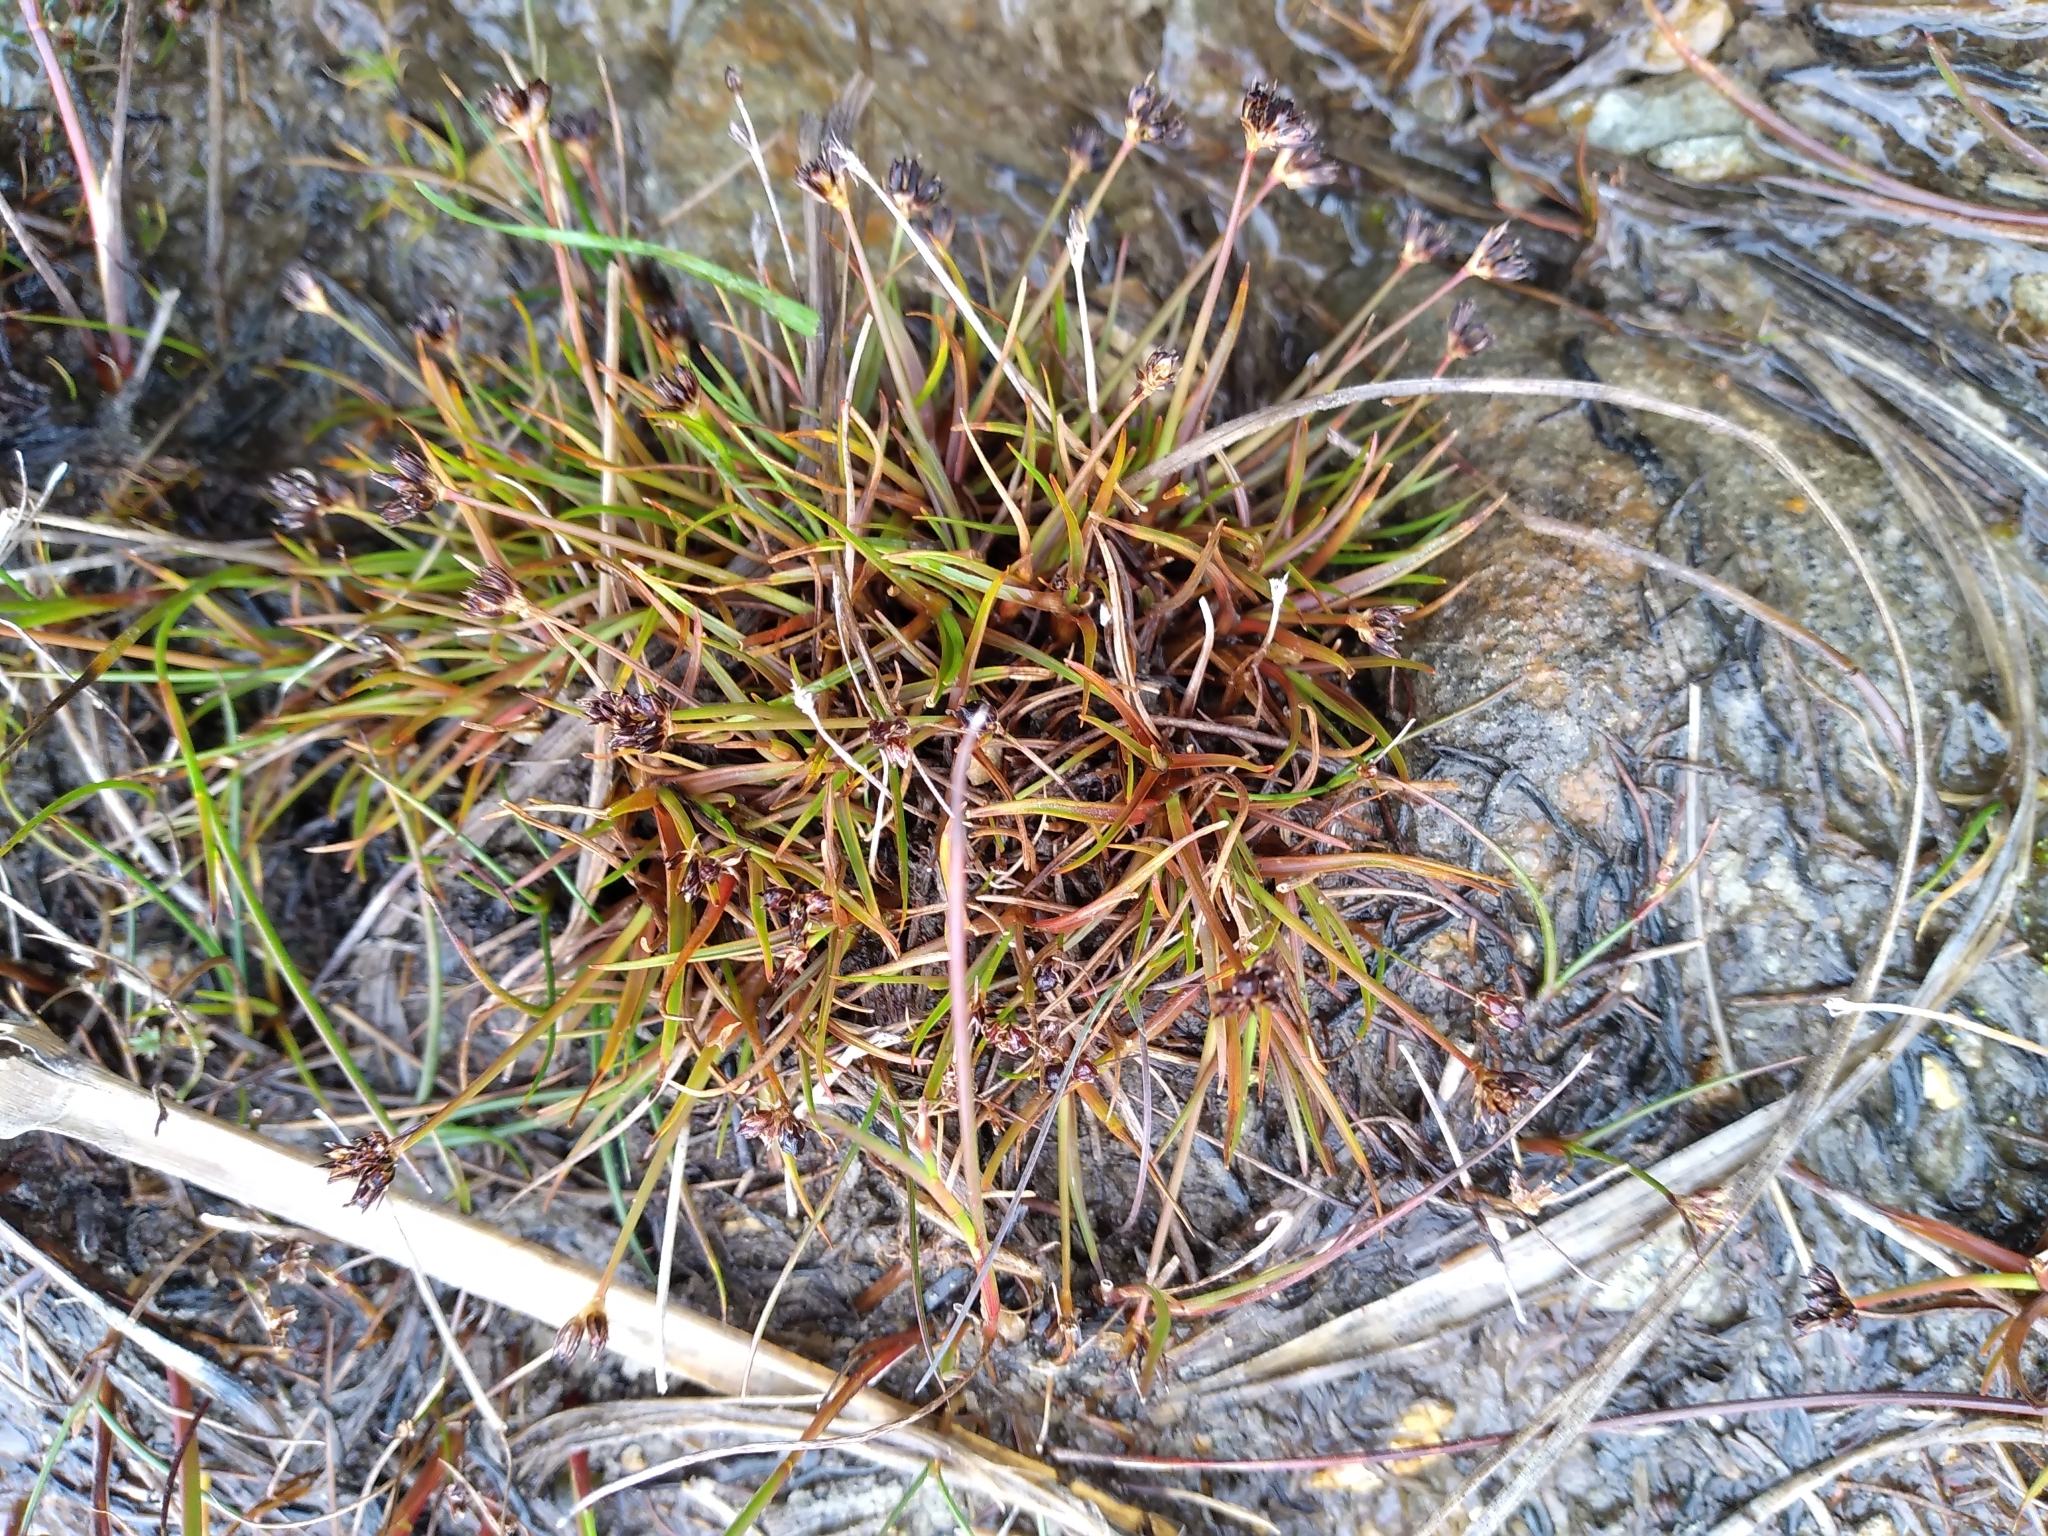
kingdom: Plantae
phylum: Tracheophyta
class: Liliopsida
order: Poales
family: Juncaceae
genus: Juncus
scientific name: Juncus antarcticus
